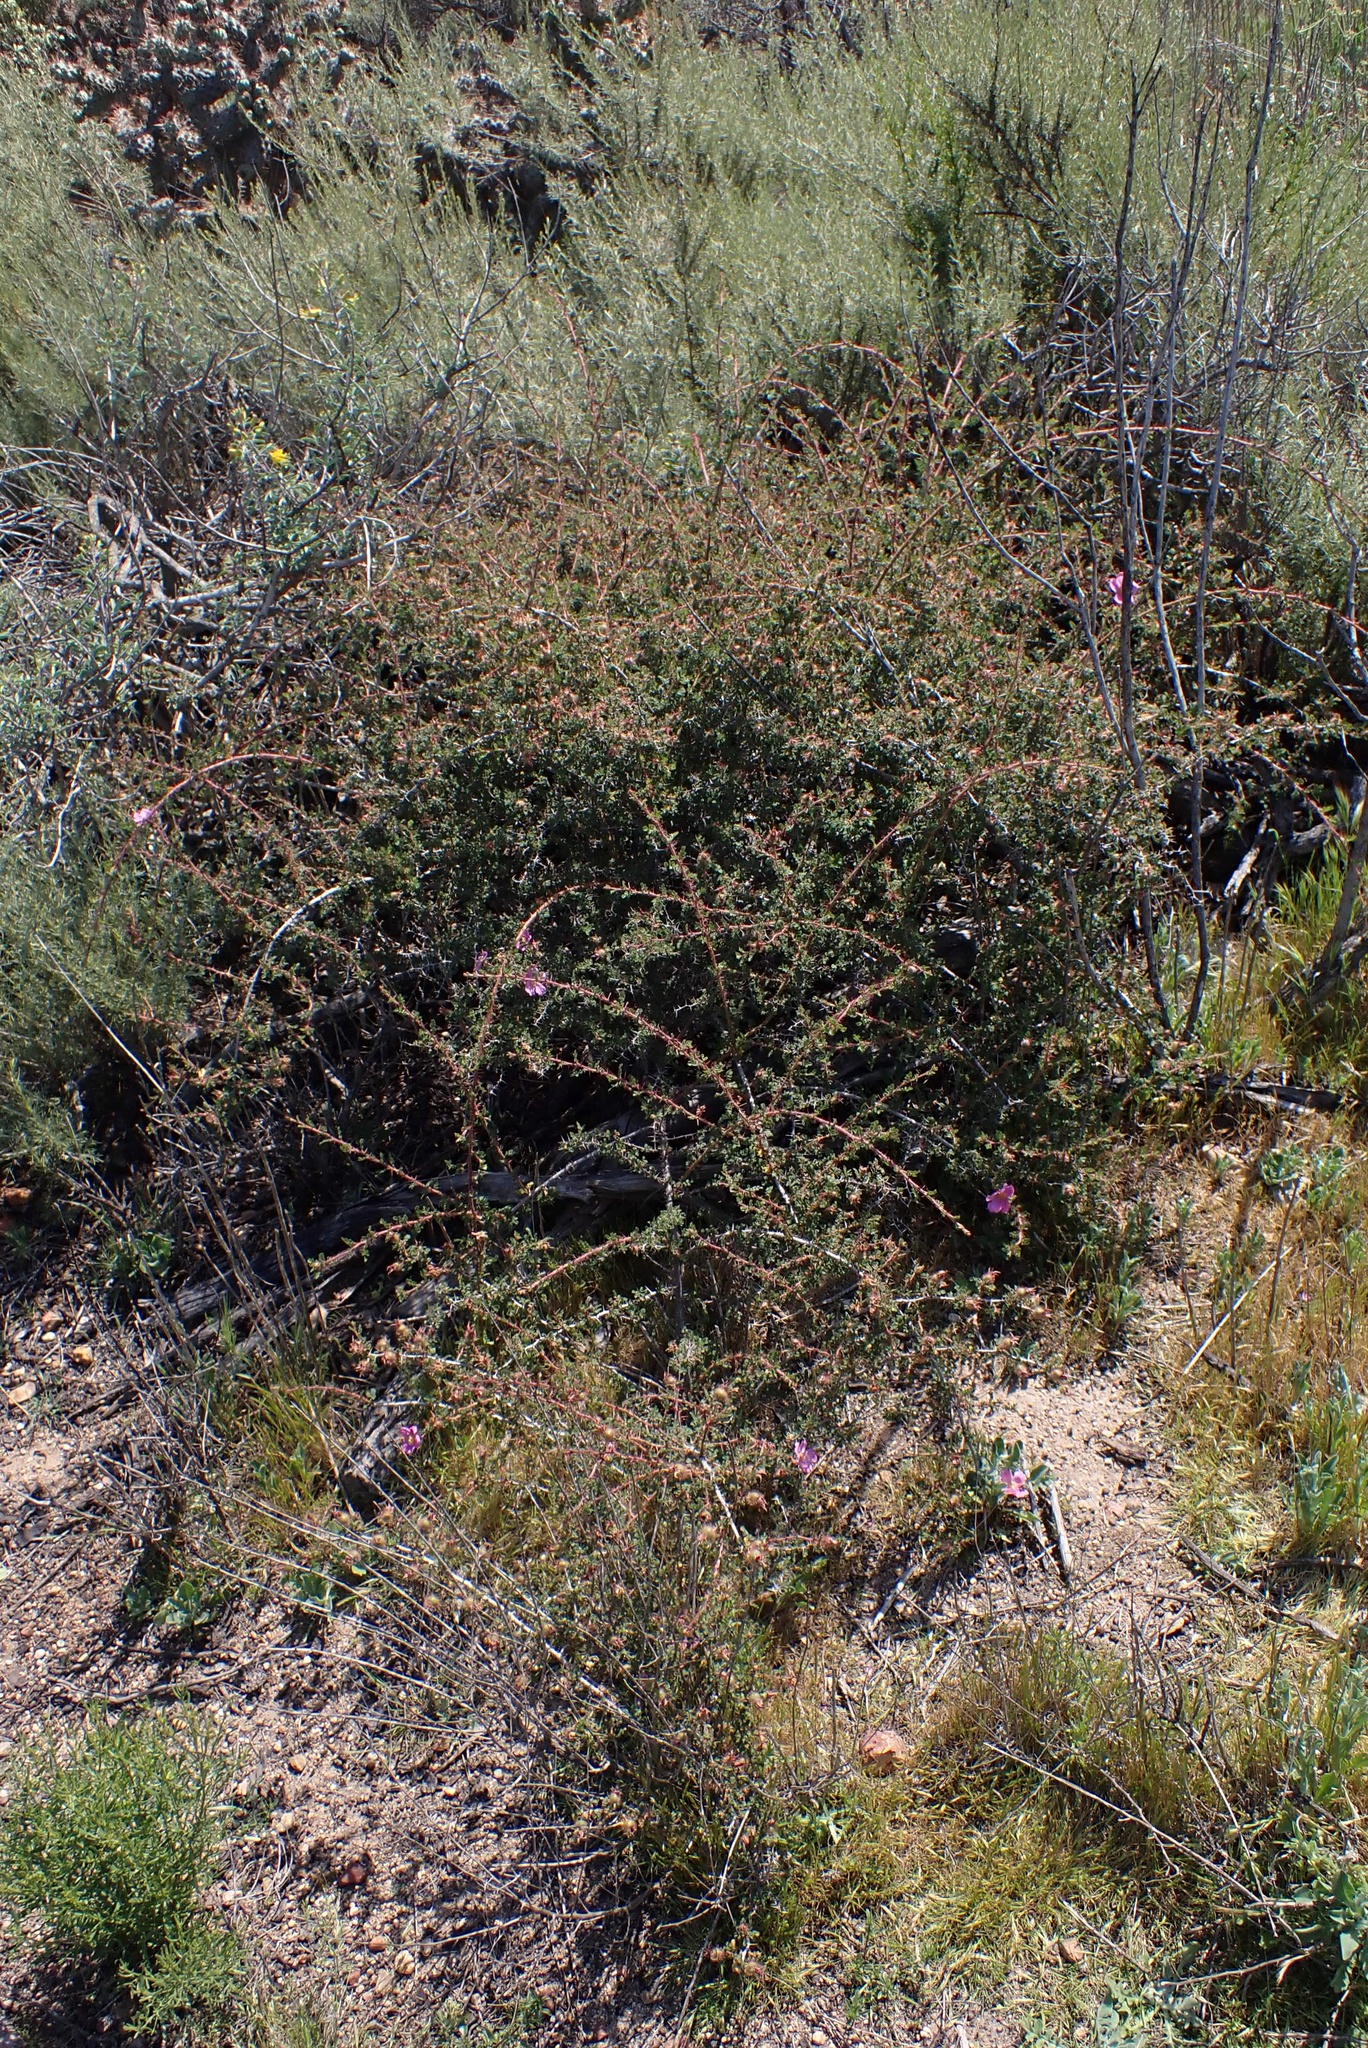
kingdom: Plantae
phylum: Tracheophyta
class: Magnoliopsida
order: Rosales
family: Rosaceae
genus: Rosa
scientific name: Rosa minutifolia
